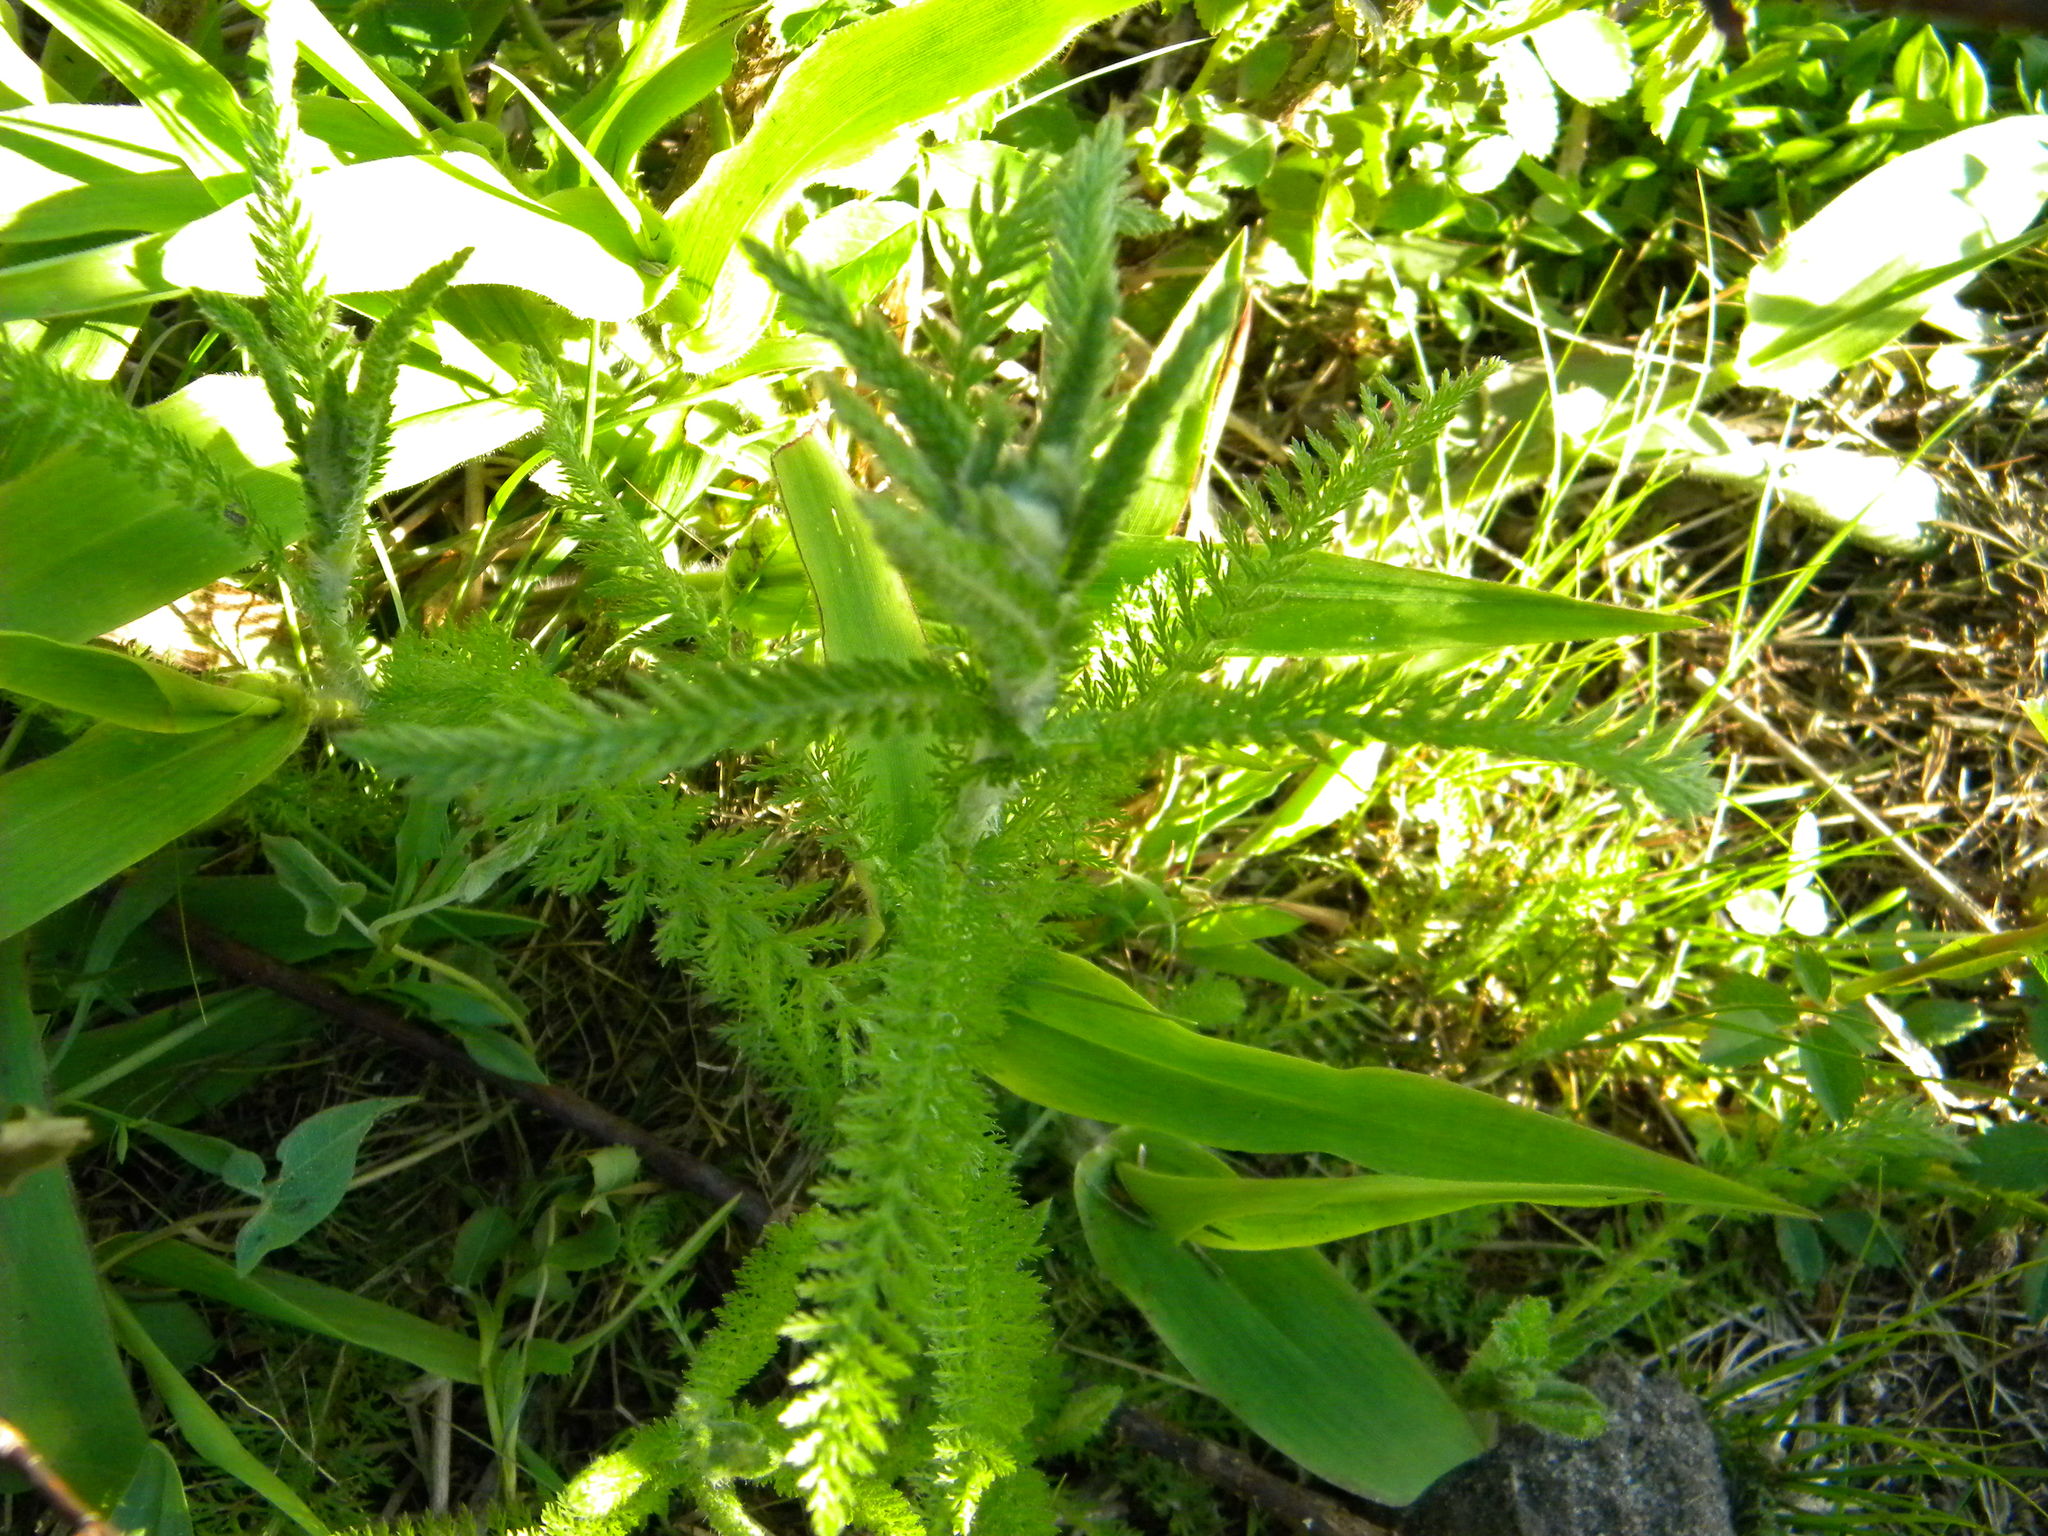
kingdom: Plantae
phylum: Tracheophyta
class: Magnoliopsida
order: Asterales
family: Asteraceae
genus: Achillea
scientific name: Achillea millefolium
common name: Yarrow
